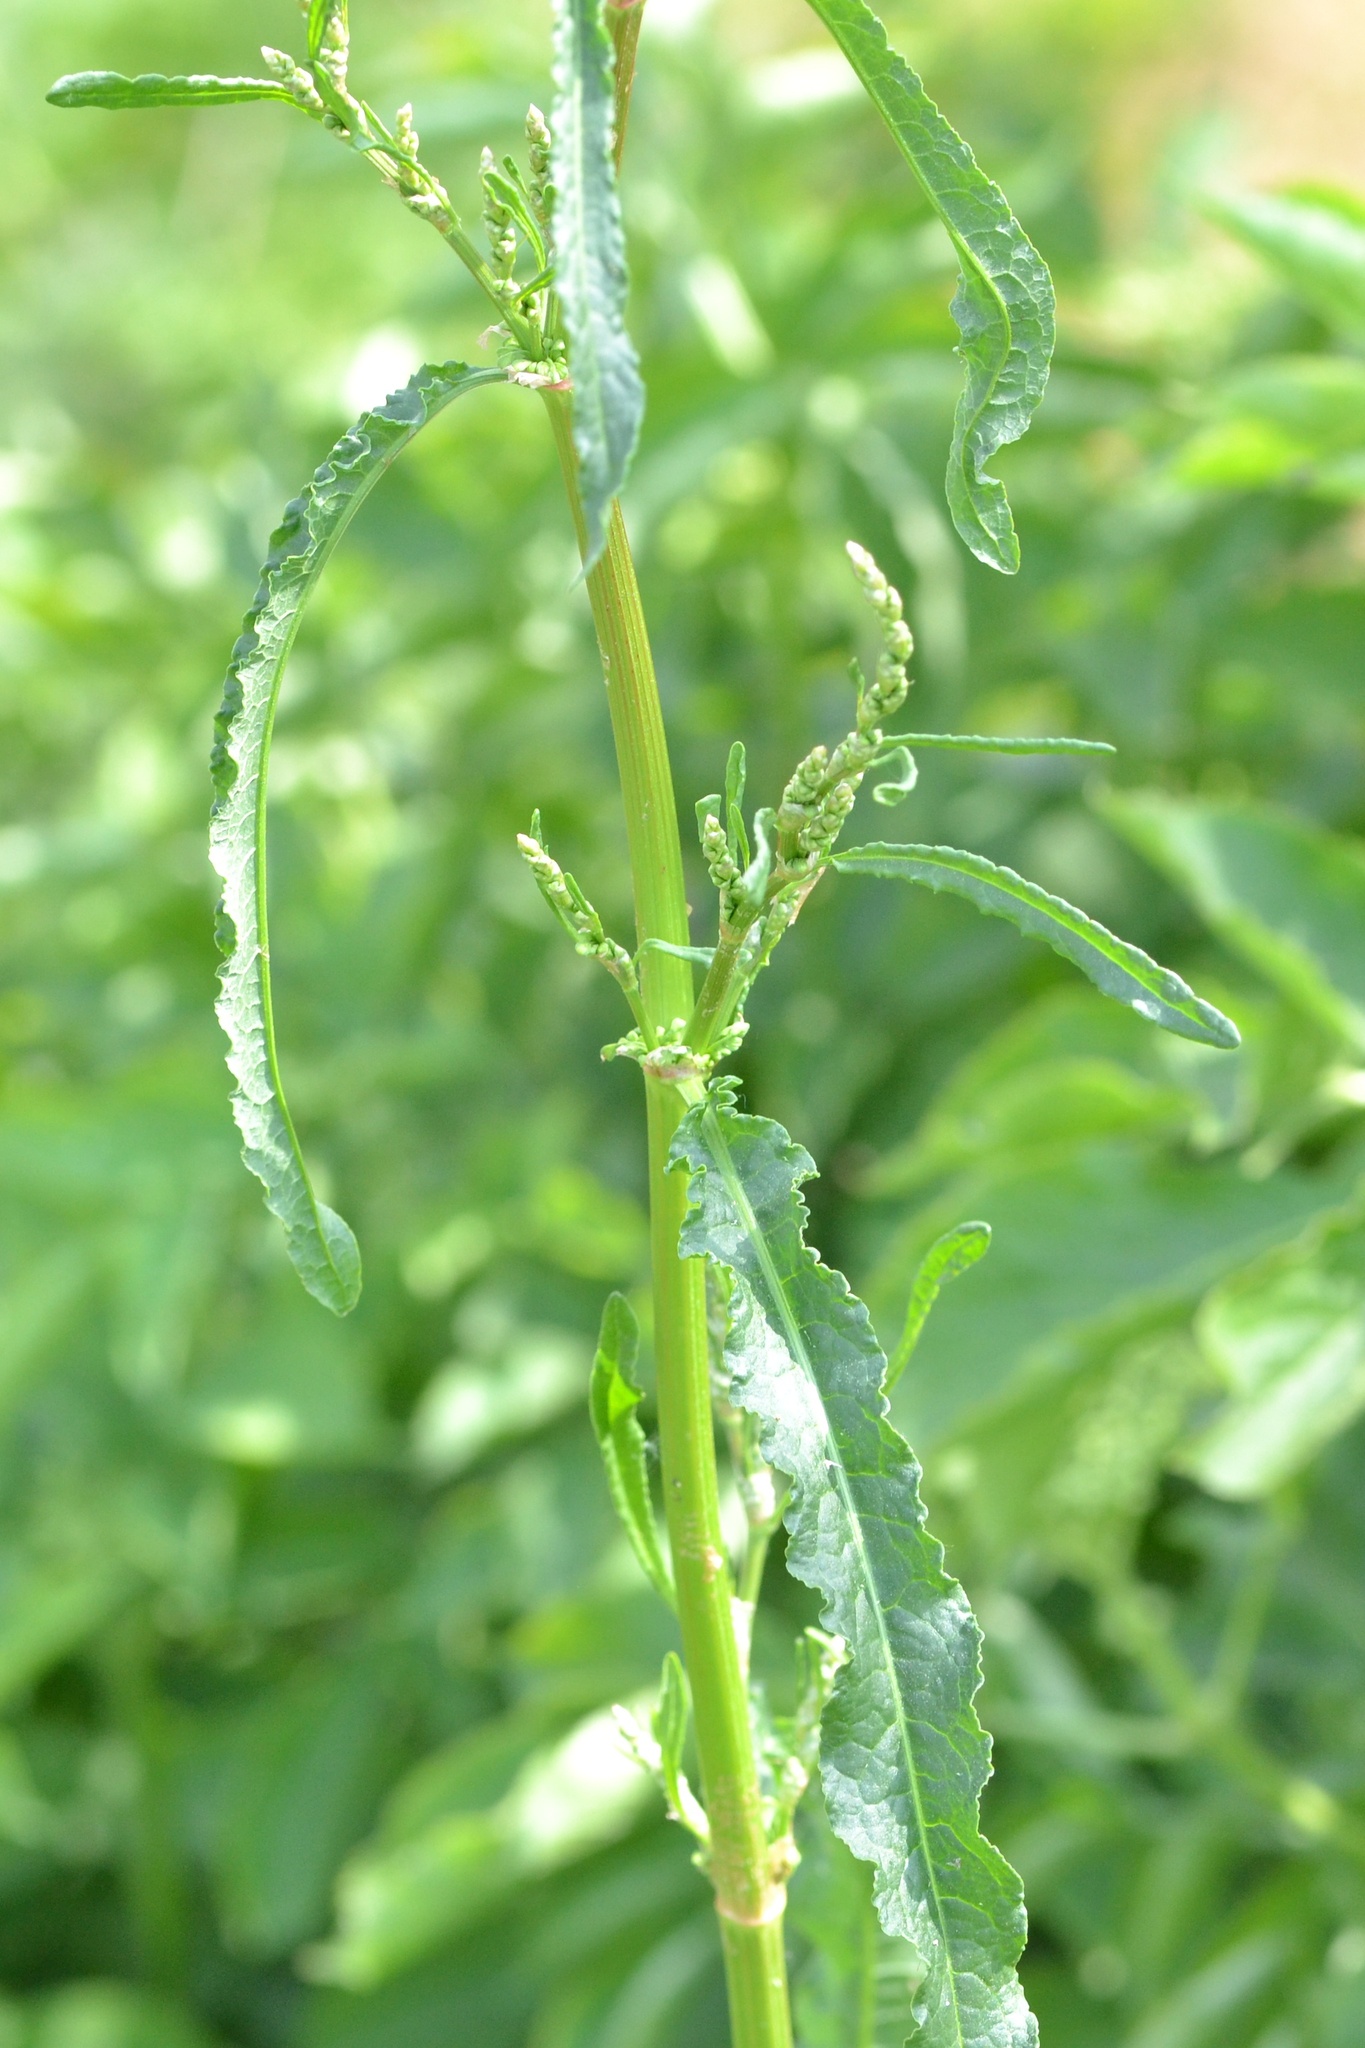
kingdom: Plantae
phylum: Tracheophyta
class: Magnoliopsida
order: Caryophyllales
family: Polygonaceae
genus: Rumex
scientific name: Rumex crispus
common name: Curled dock
